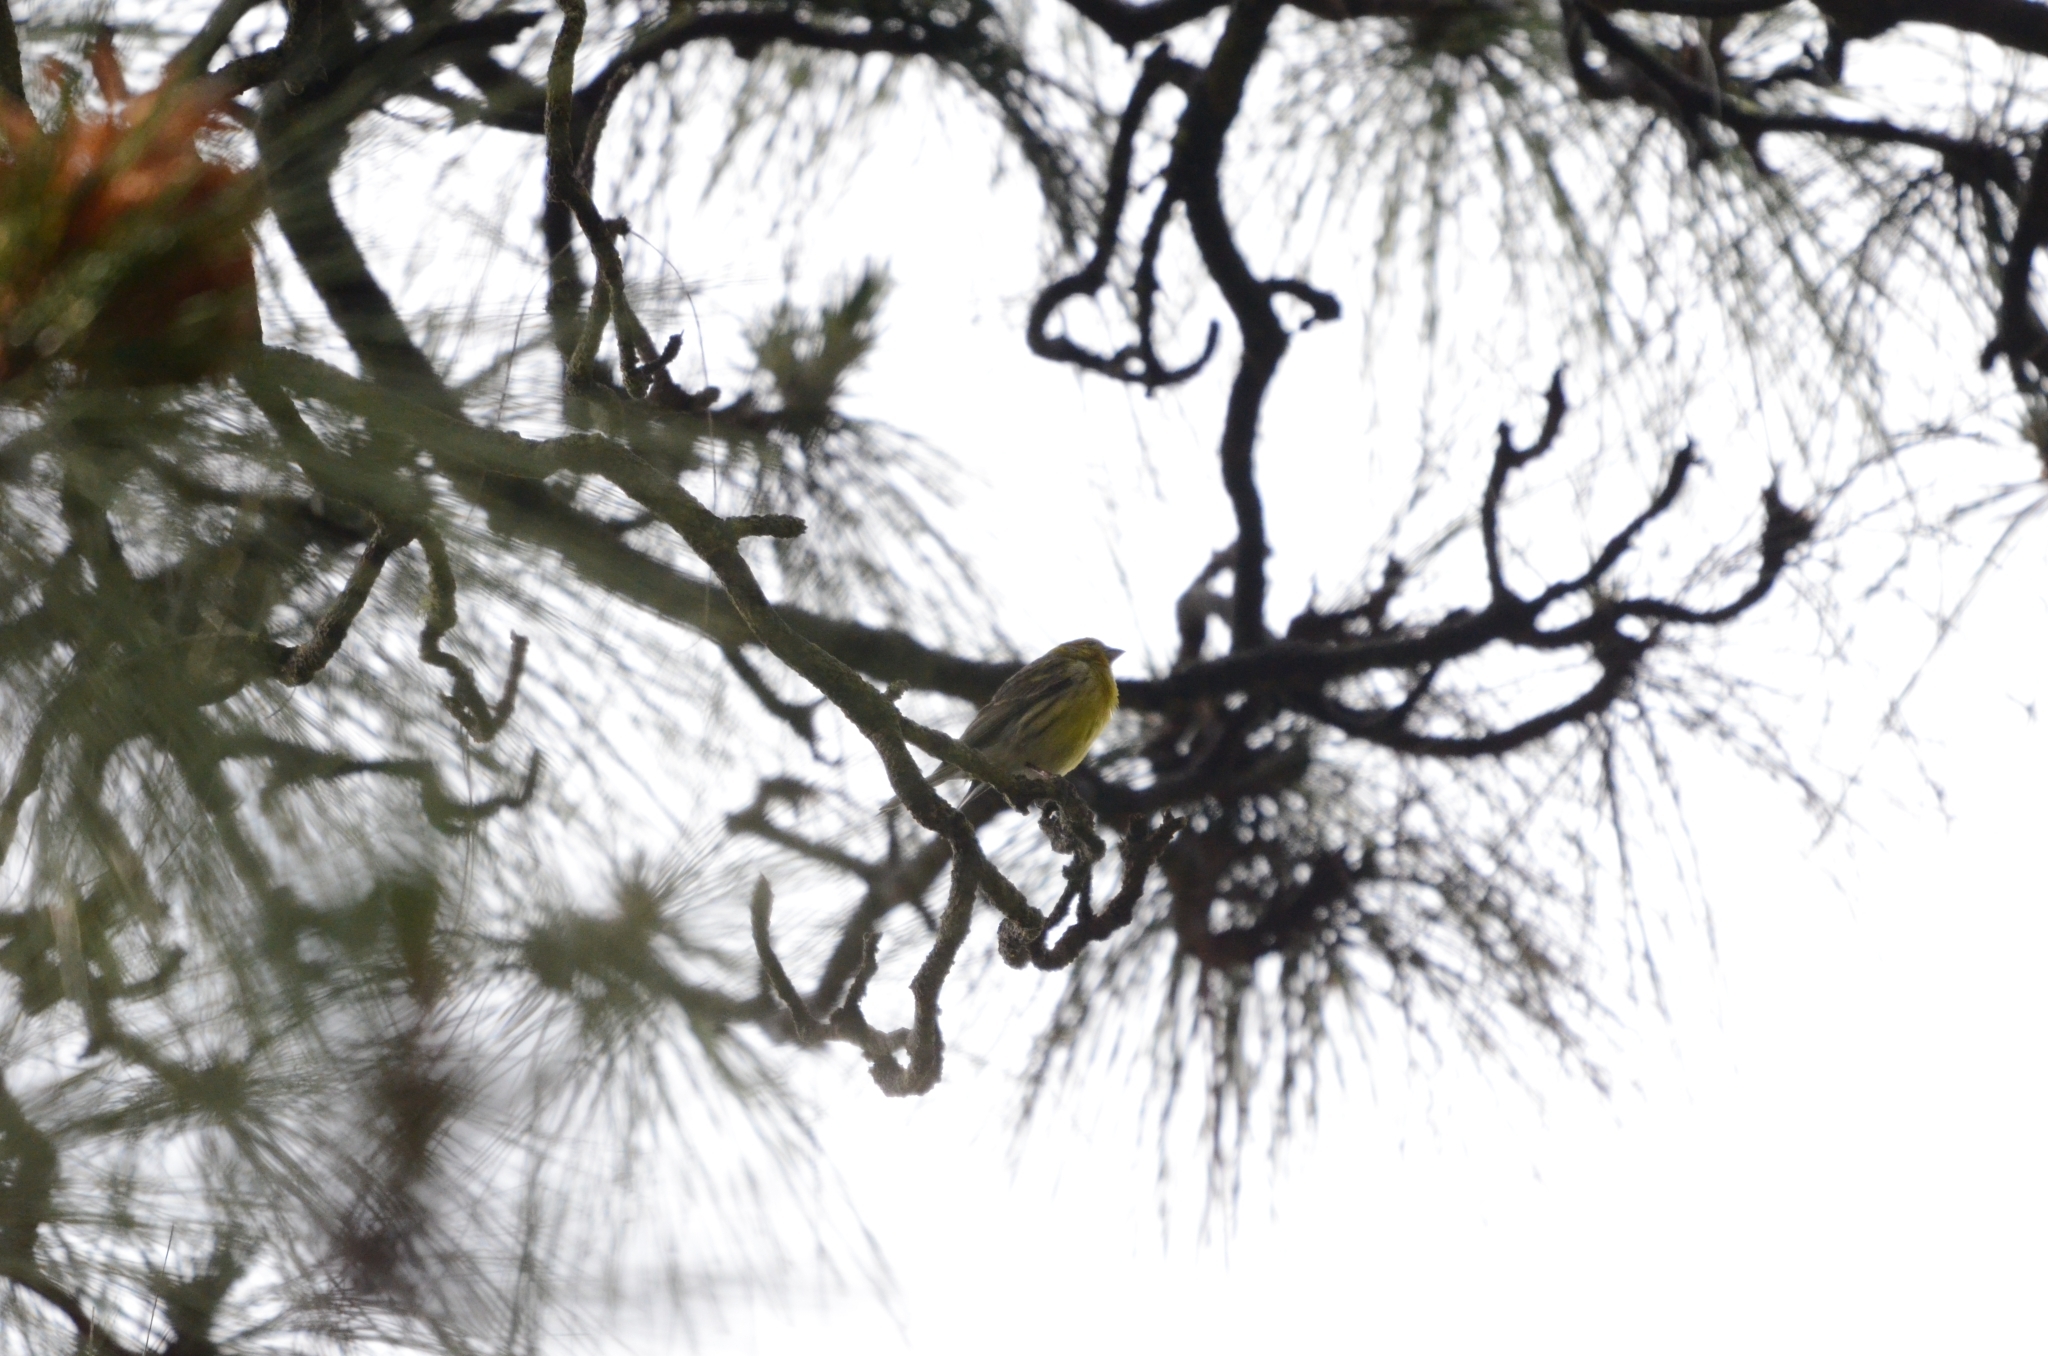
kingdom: Animalia
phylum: Chordata
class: Aves
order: Passeriformes
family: Fringillidae
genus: Serinus
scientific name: Serinus canaria
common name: Atlantic canary
